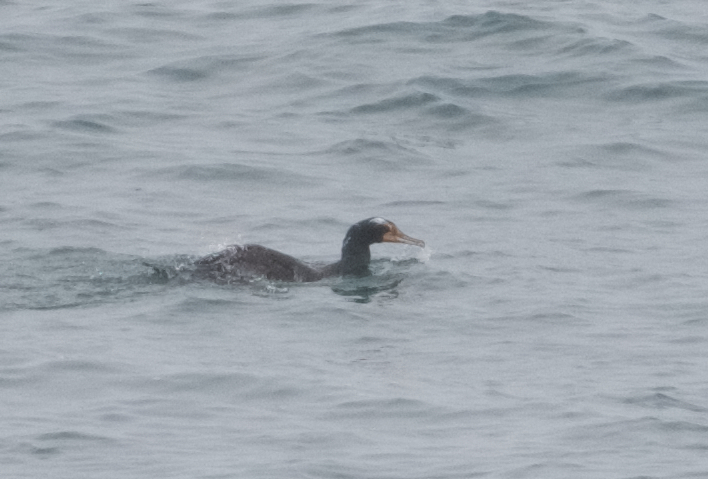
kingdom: Animalia
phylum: Chordata
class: Aves
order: Suliformes
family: Phalacrocoracidae
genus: Phalacrocorax
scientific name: Phalacrocorax auritus
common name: Double-crested cormorant
